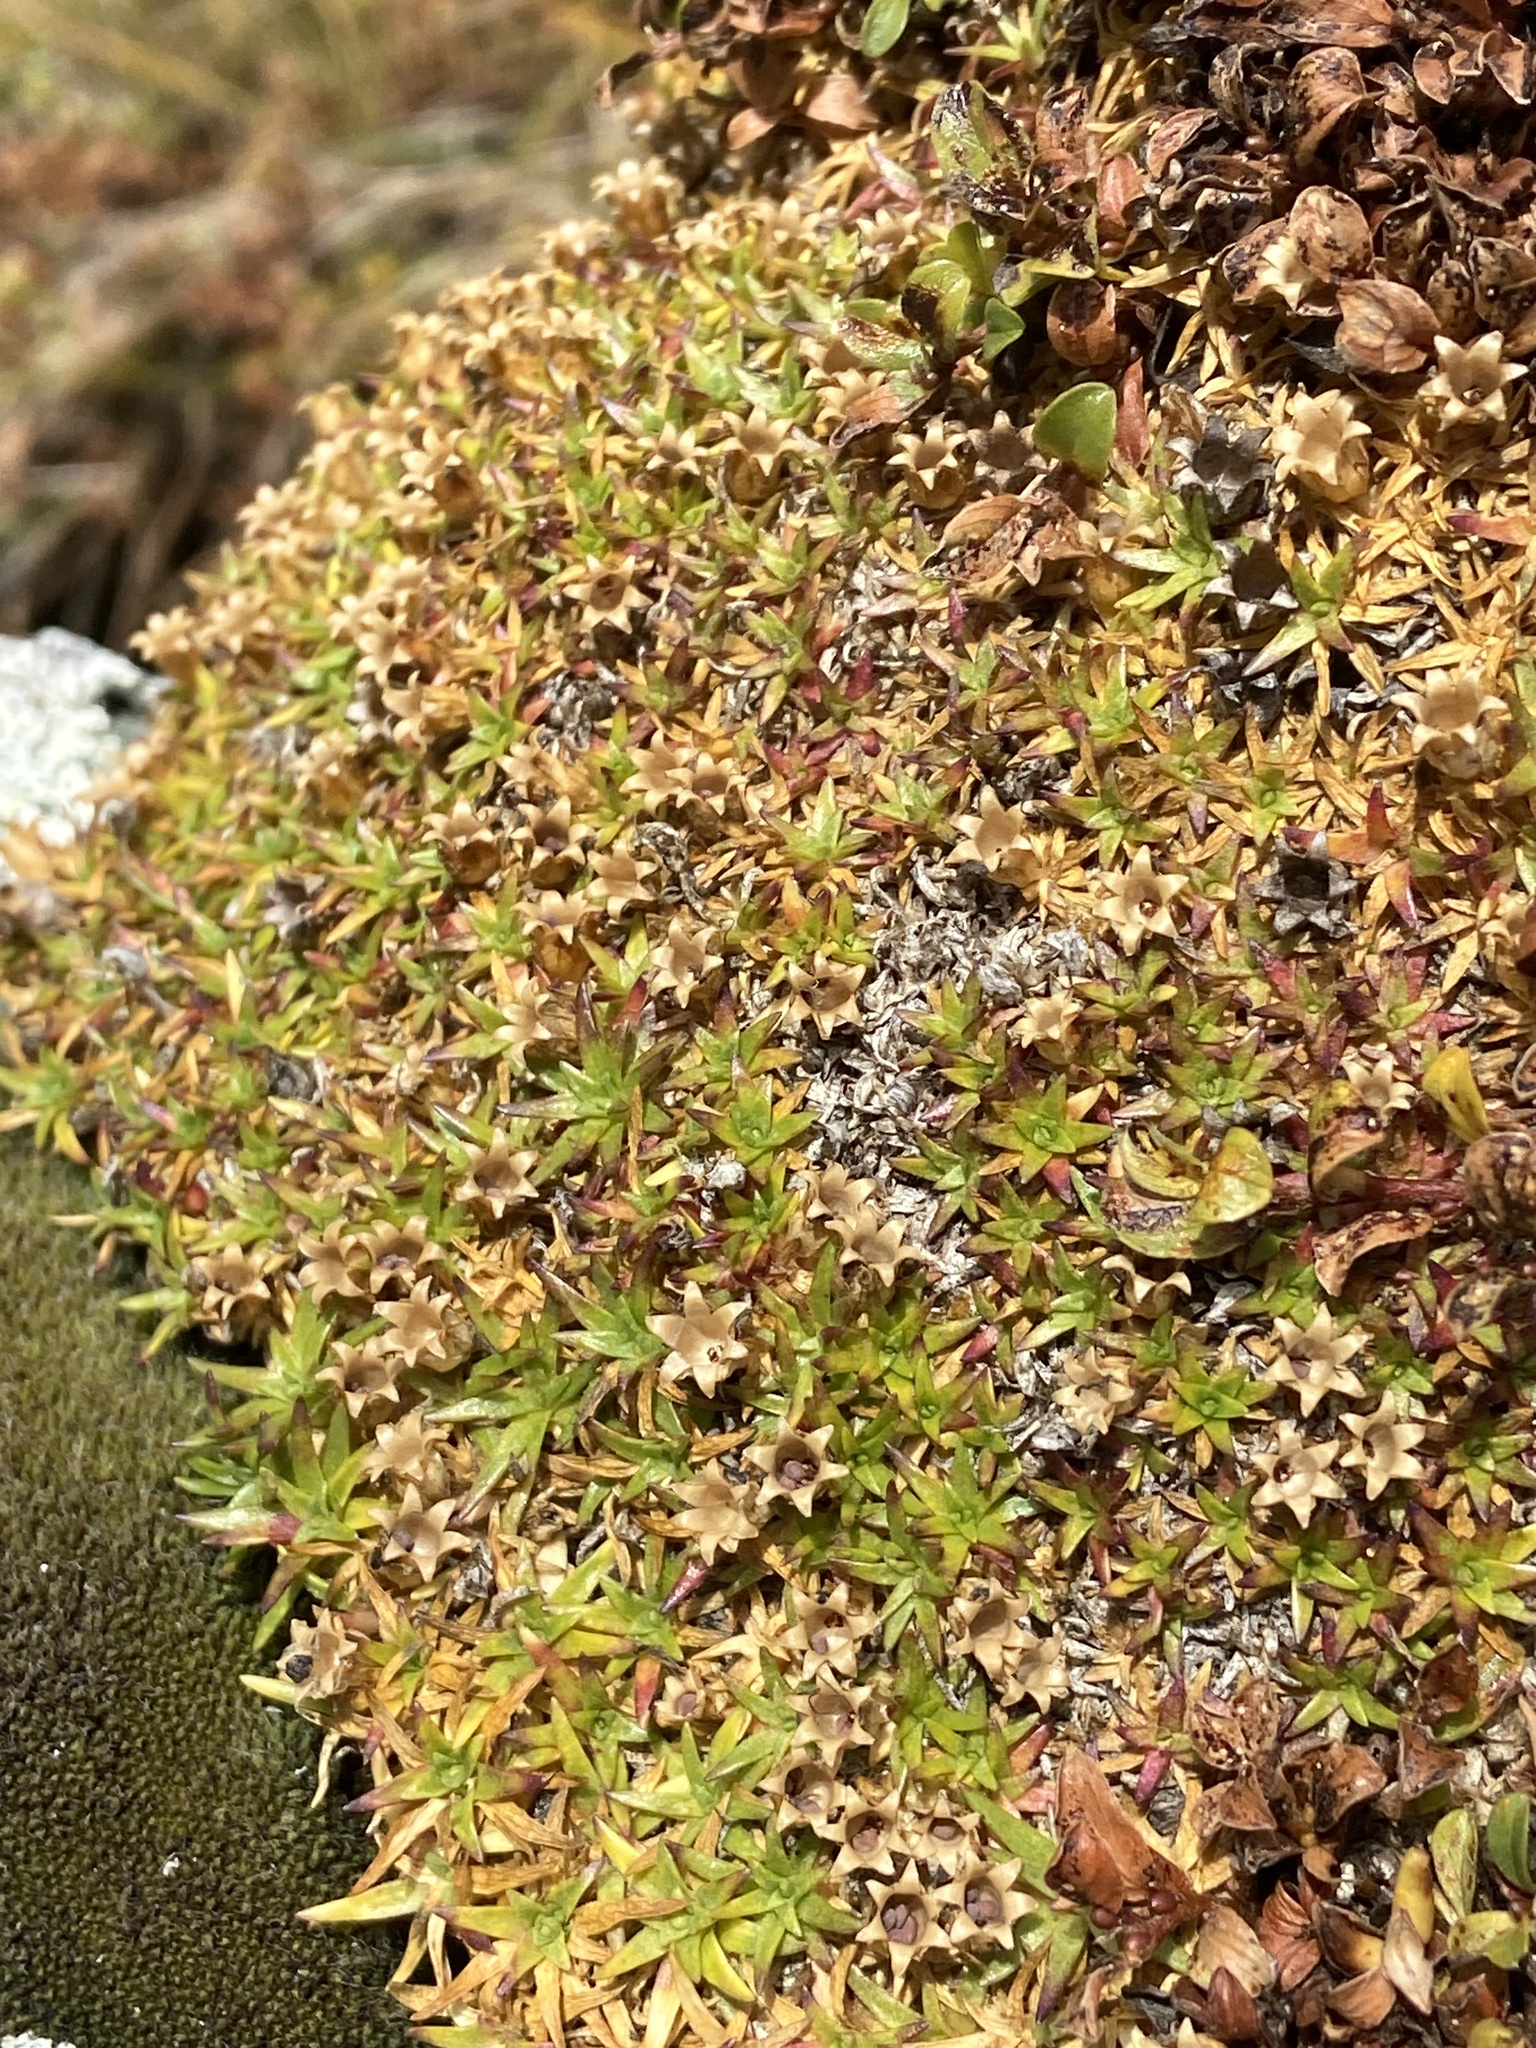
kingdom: Plantae
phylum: Tracheophyta
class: Magnoliopsida
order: Caryophyllales
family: Caryophyllaceae
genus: Silene
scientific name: Silene acaulis
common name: Moss campion
